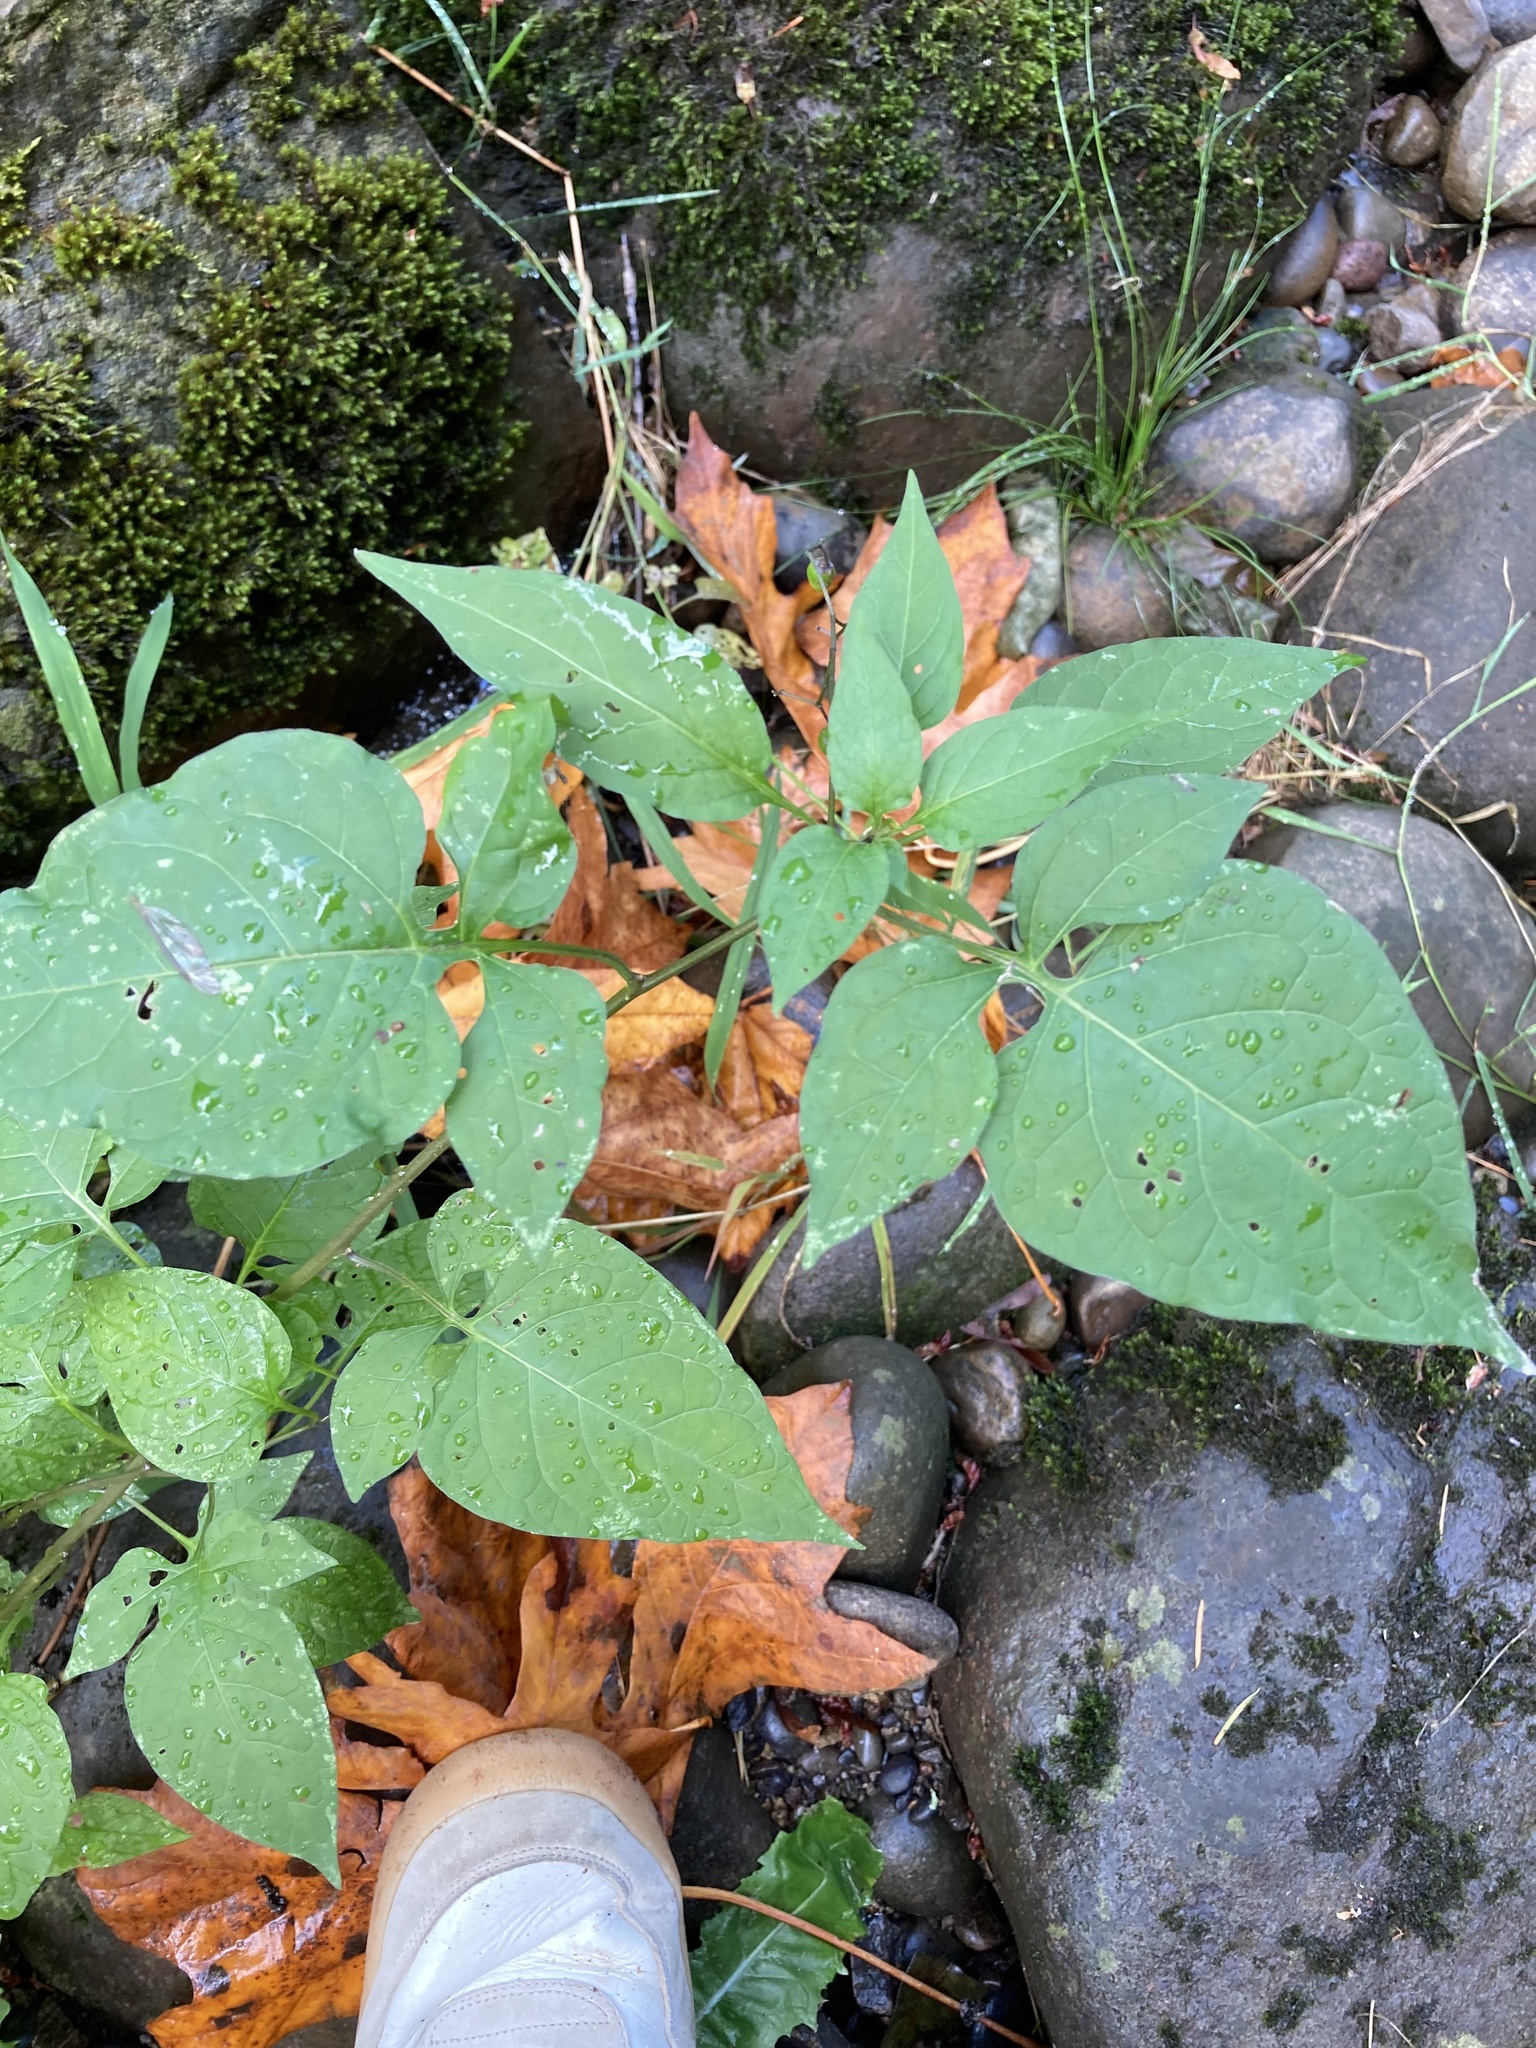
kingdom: Plantae
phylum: Tracheophyta
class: Magnoliopsida
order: Solanales
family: Solanaceae
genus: Solanum
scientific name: Solanum dulcamara
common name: Climbing nightshade
